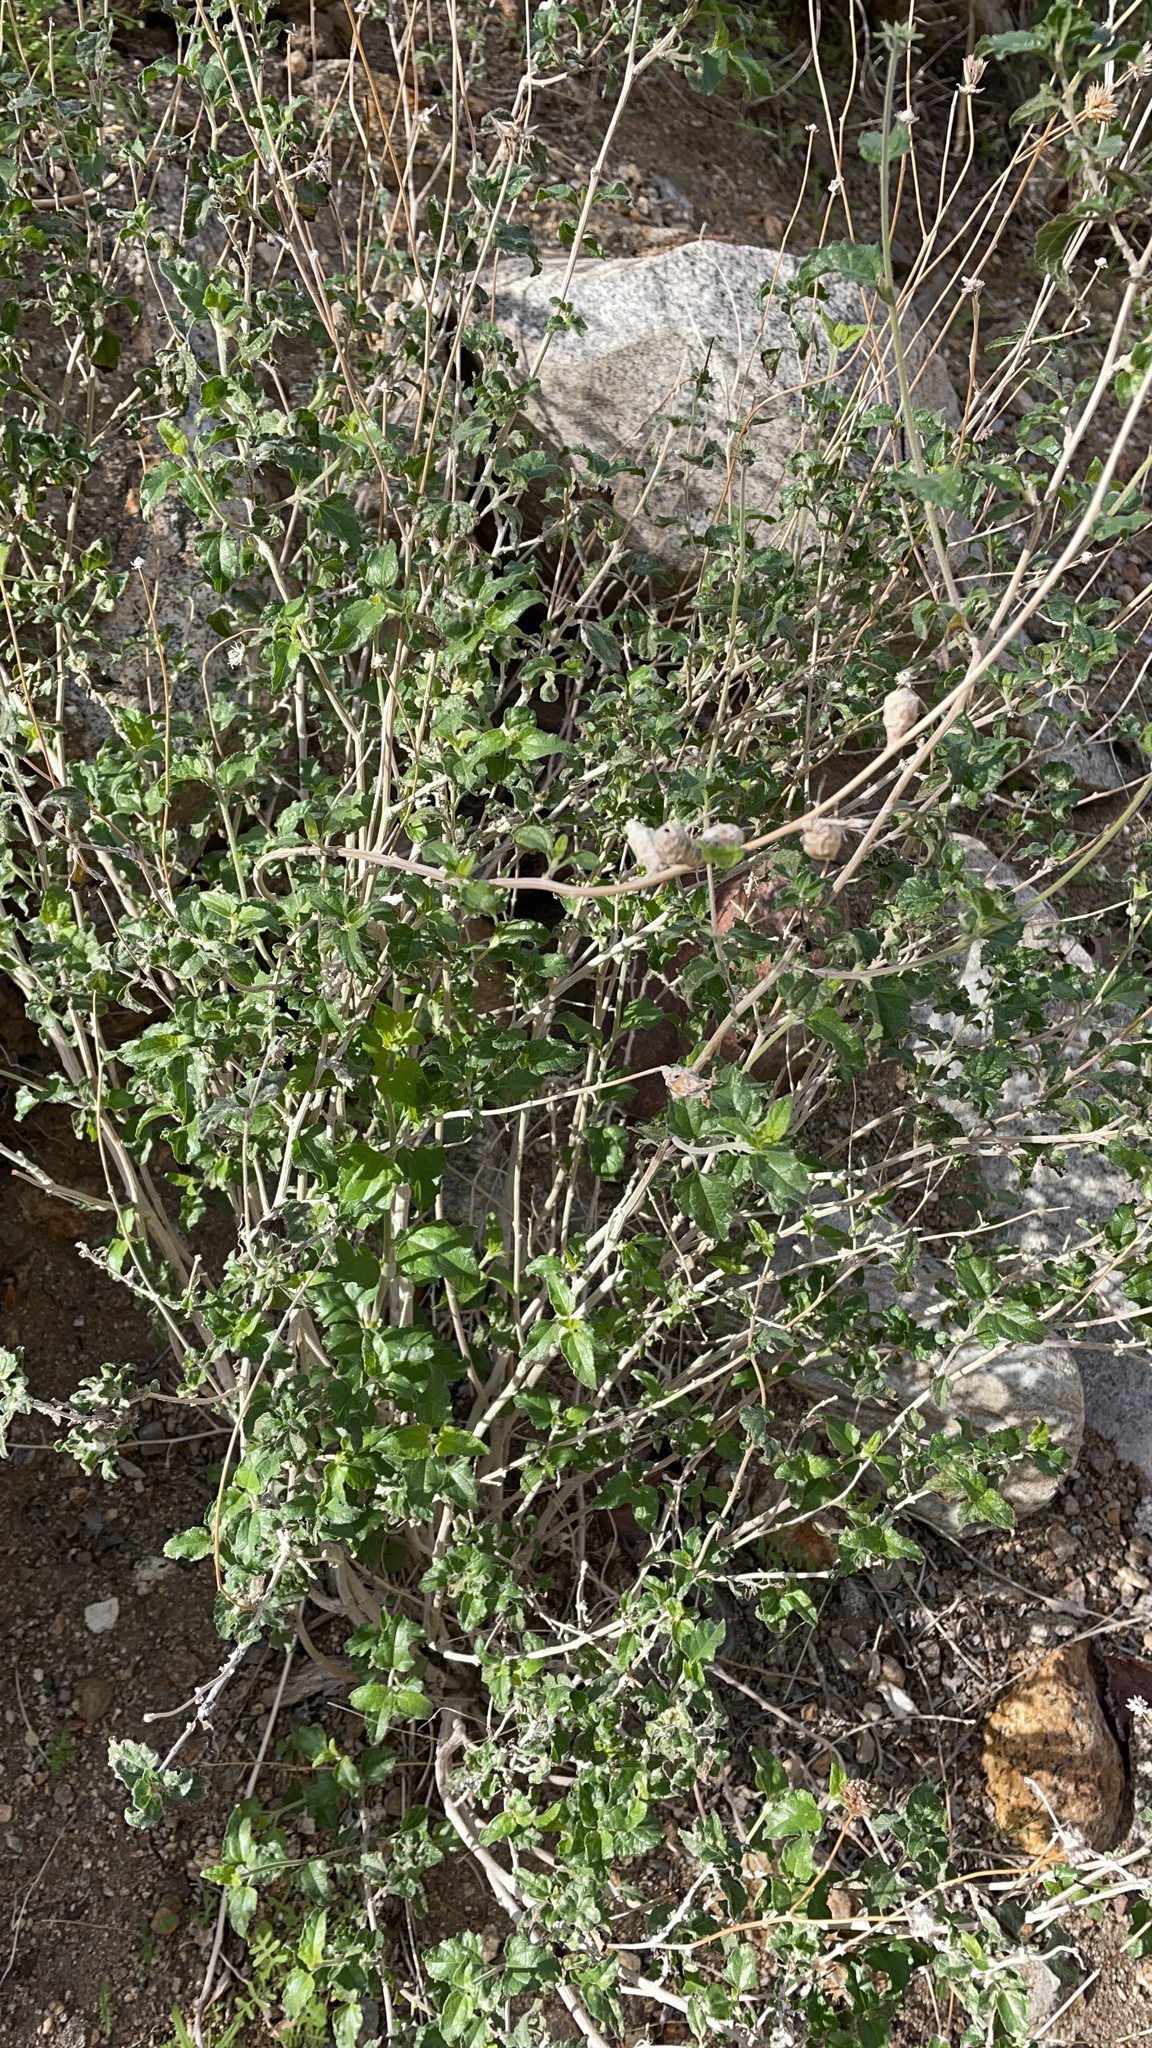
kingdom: Plantae
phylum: Tracheophyta
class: Magnoliopsida
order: Asterales
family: Asteraceae
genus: Bahiopsis
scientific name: Bahiopsis parishii
